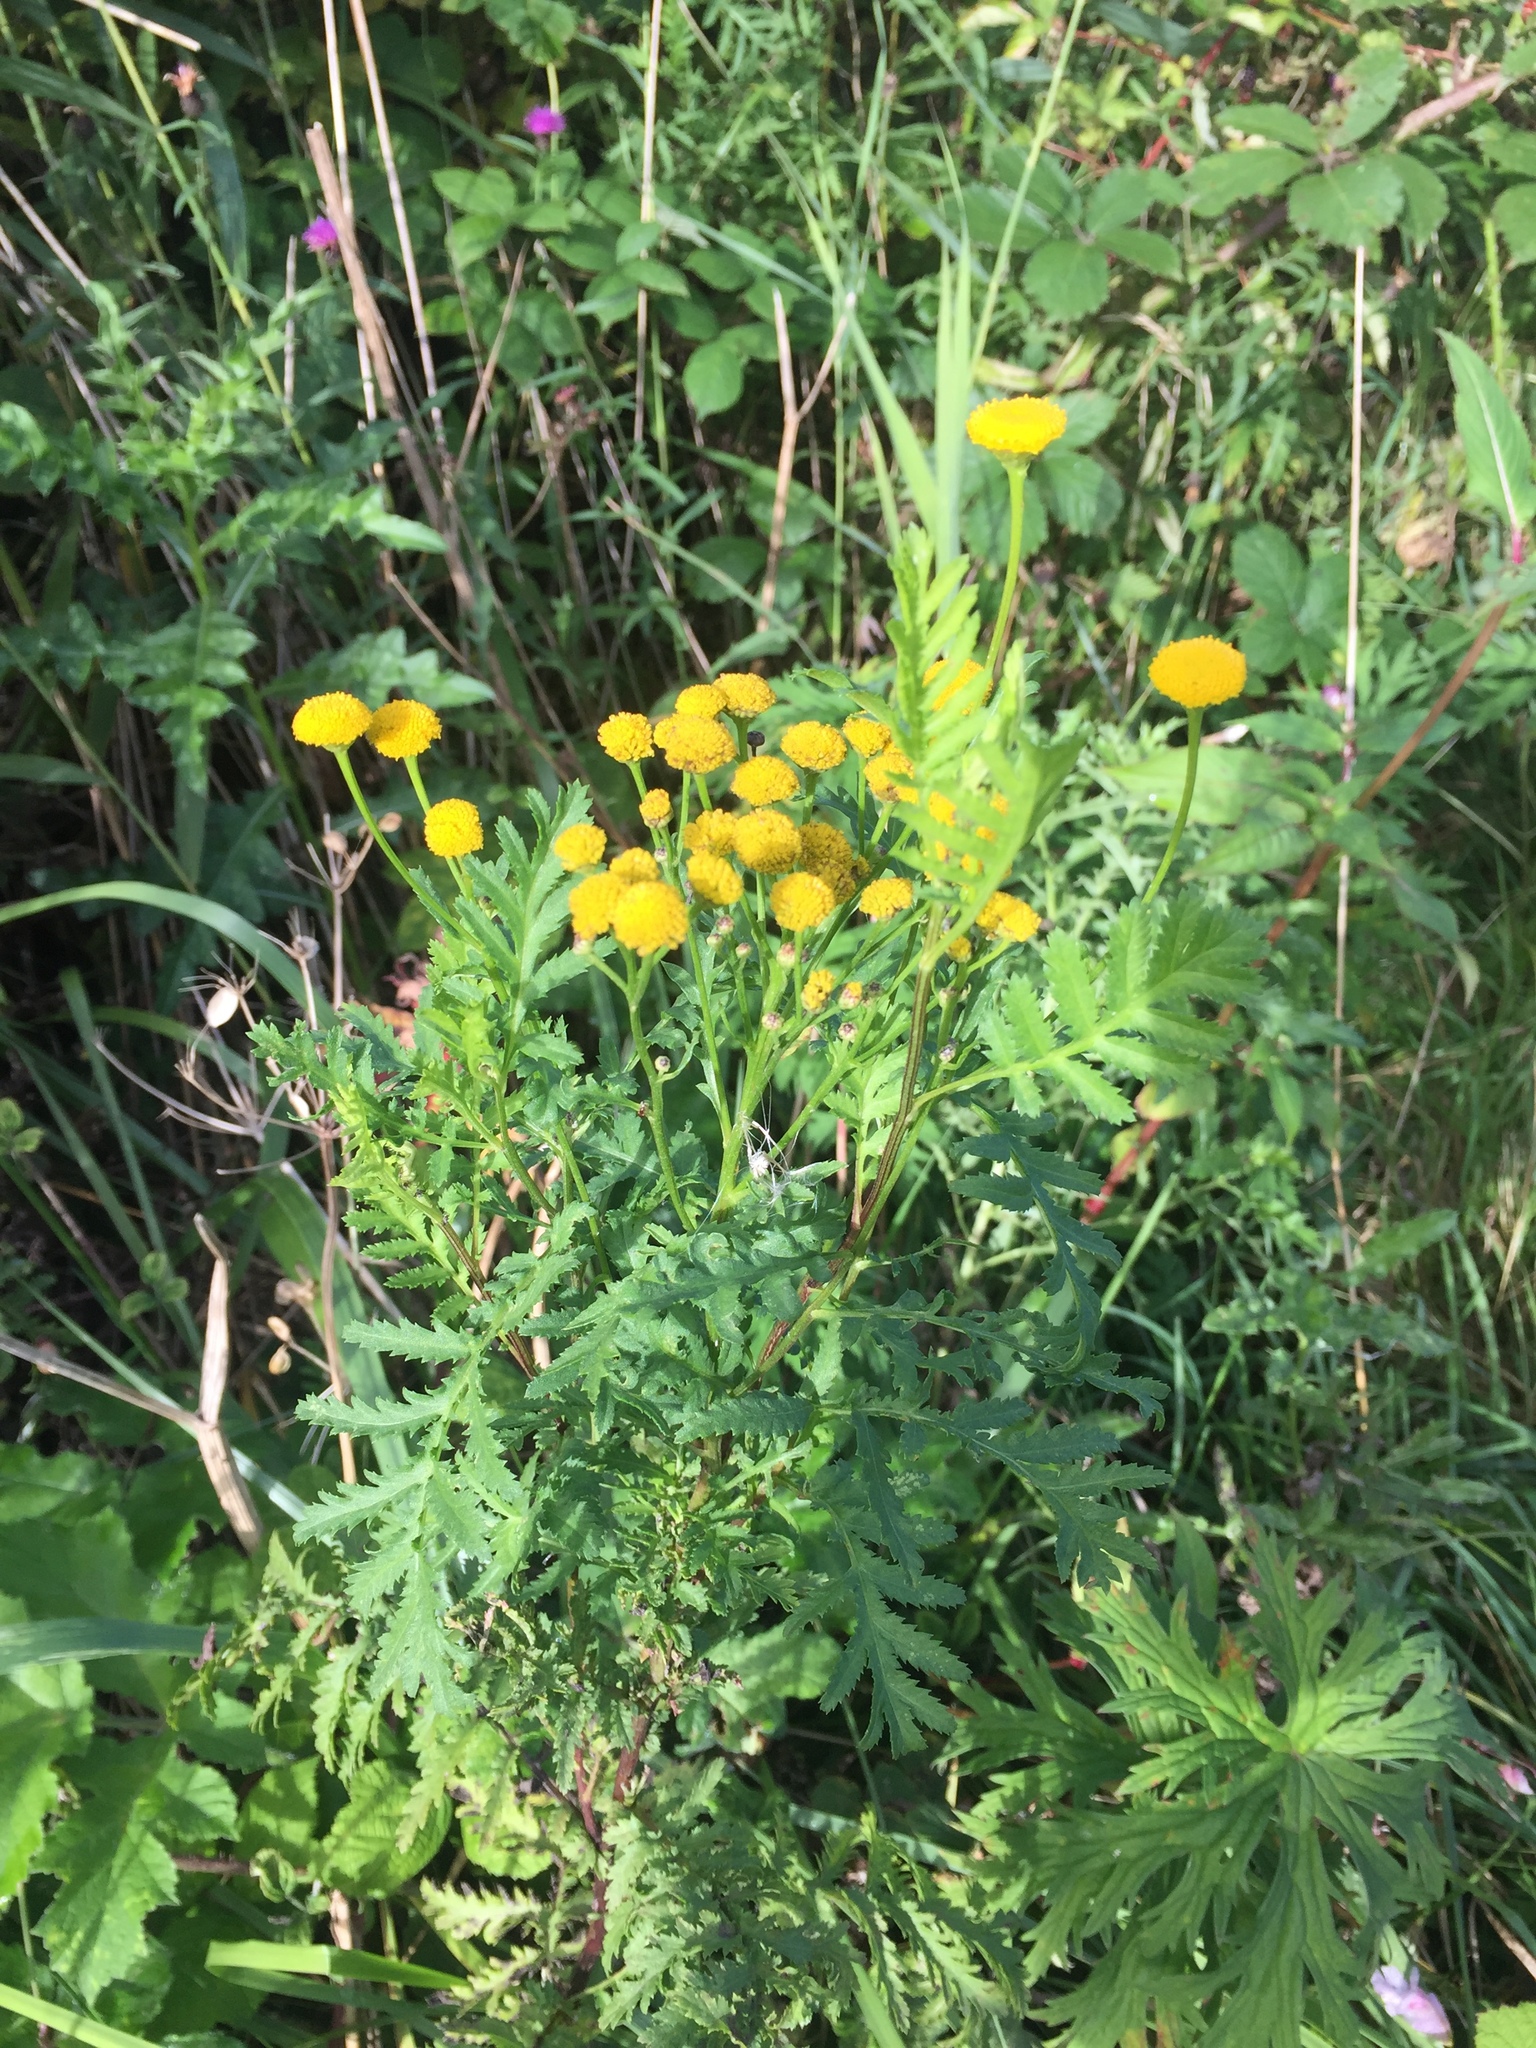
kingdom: Plantae
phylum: Tracheophyta
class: Magnoliopsida
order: Asterales
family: Asteraceae
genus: Tanacetum
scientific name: Tanacetum vulgare
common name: Common tansy
